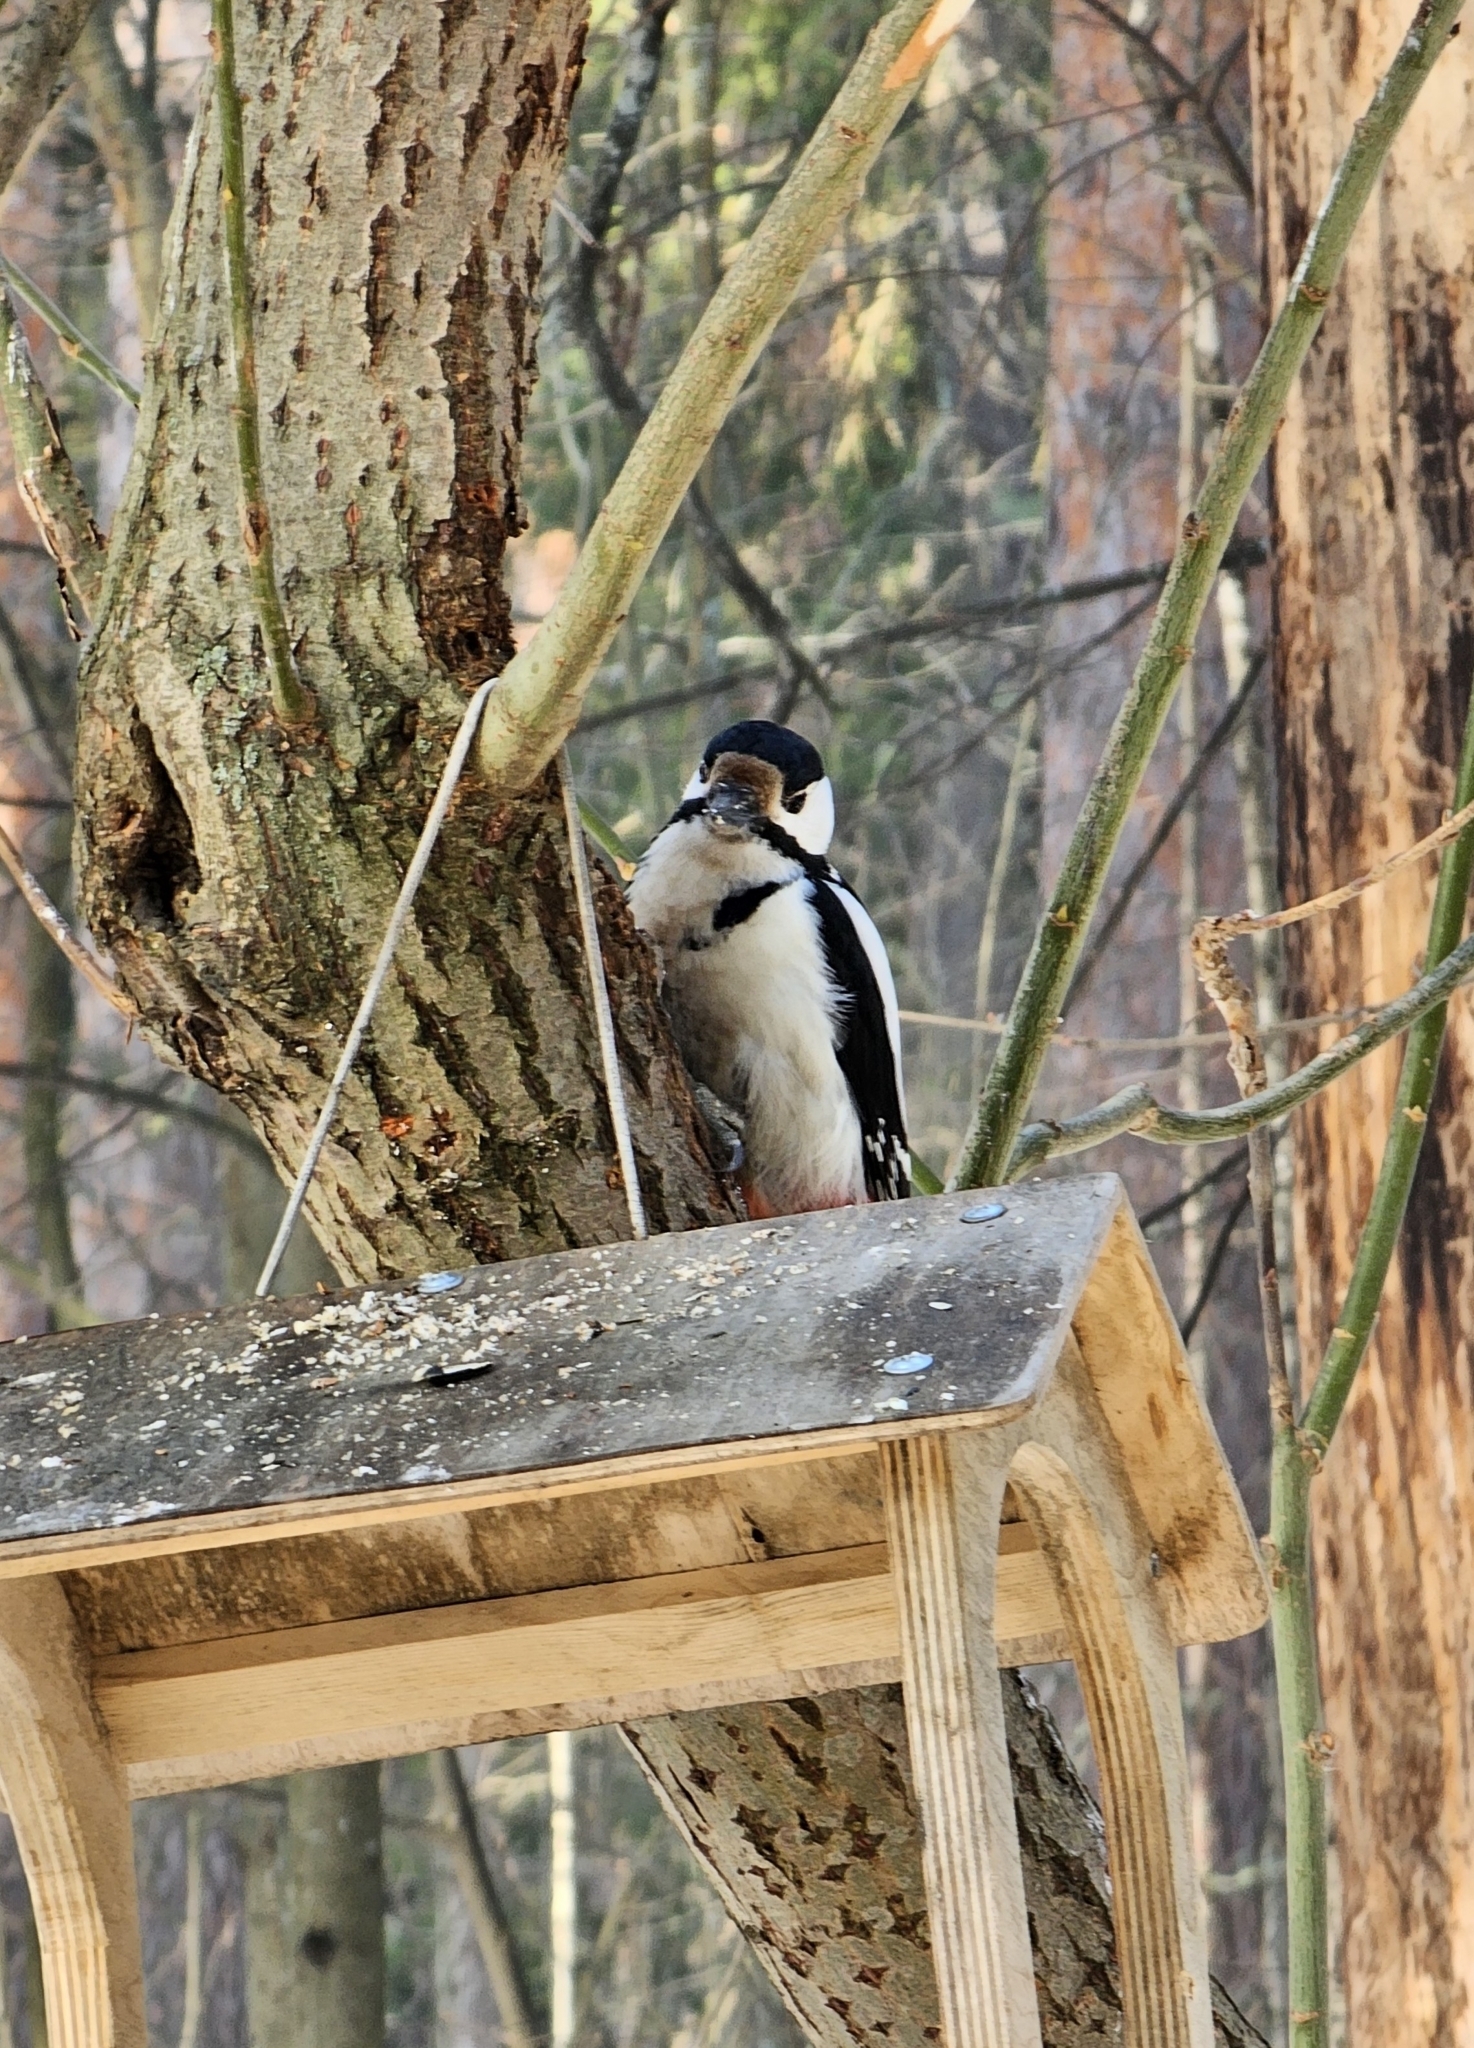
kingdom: Animalia
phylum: Chordata
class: Aves
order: Piciformes
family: Picidae
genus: Dendrocopos
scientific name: Dendrocopos major
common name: Great spotted woodpecker
